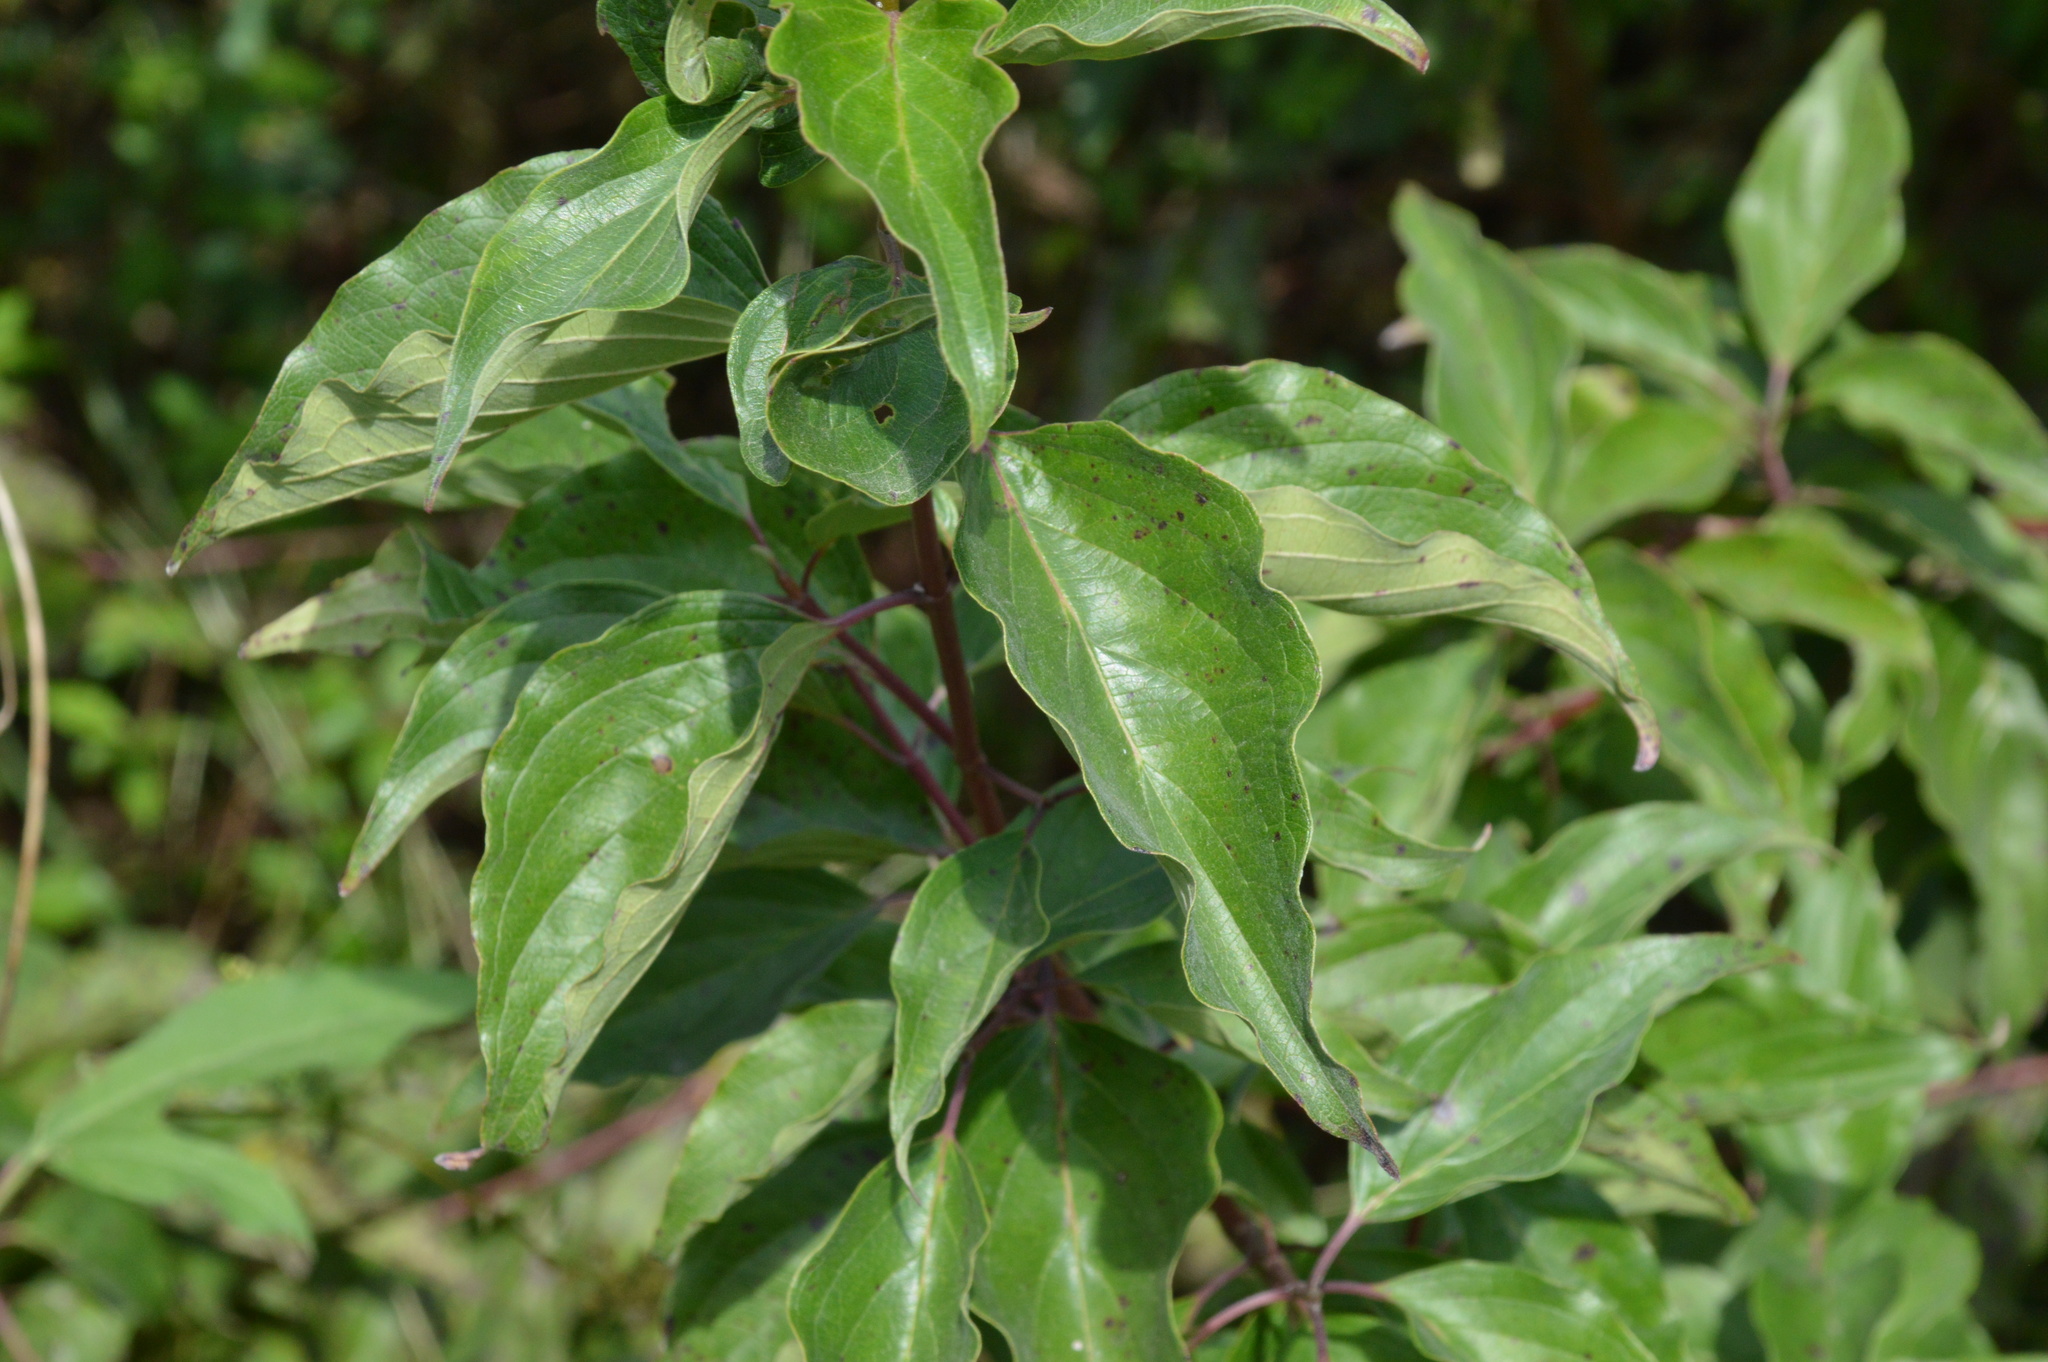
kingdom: Plantae
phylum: Tracheophyta
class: Magnoliopsida
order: Cornales
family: Cornaceae
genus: Cornus
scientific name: Cornus drummondii
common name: Rough-leaf dogwood
